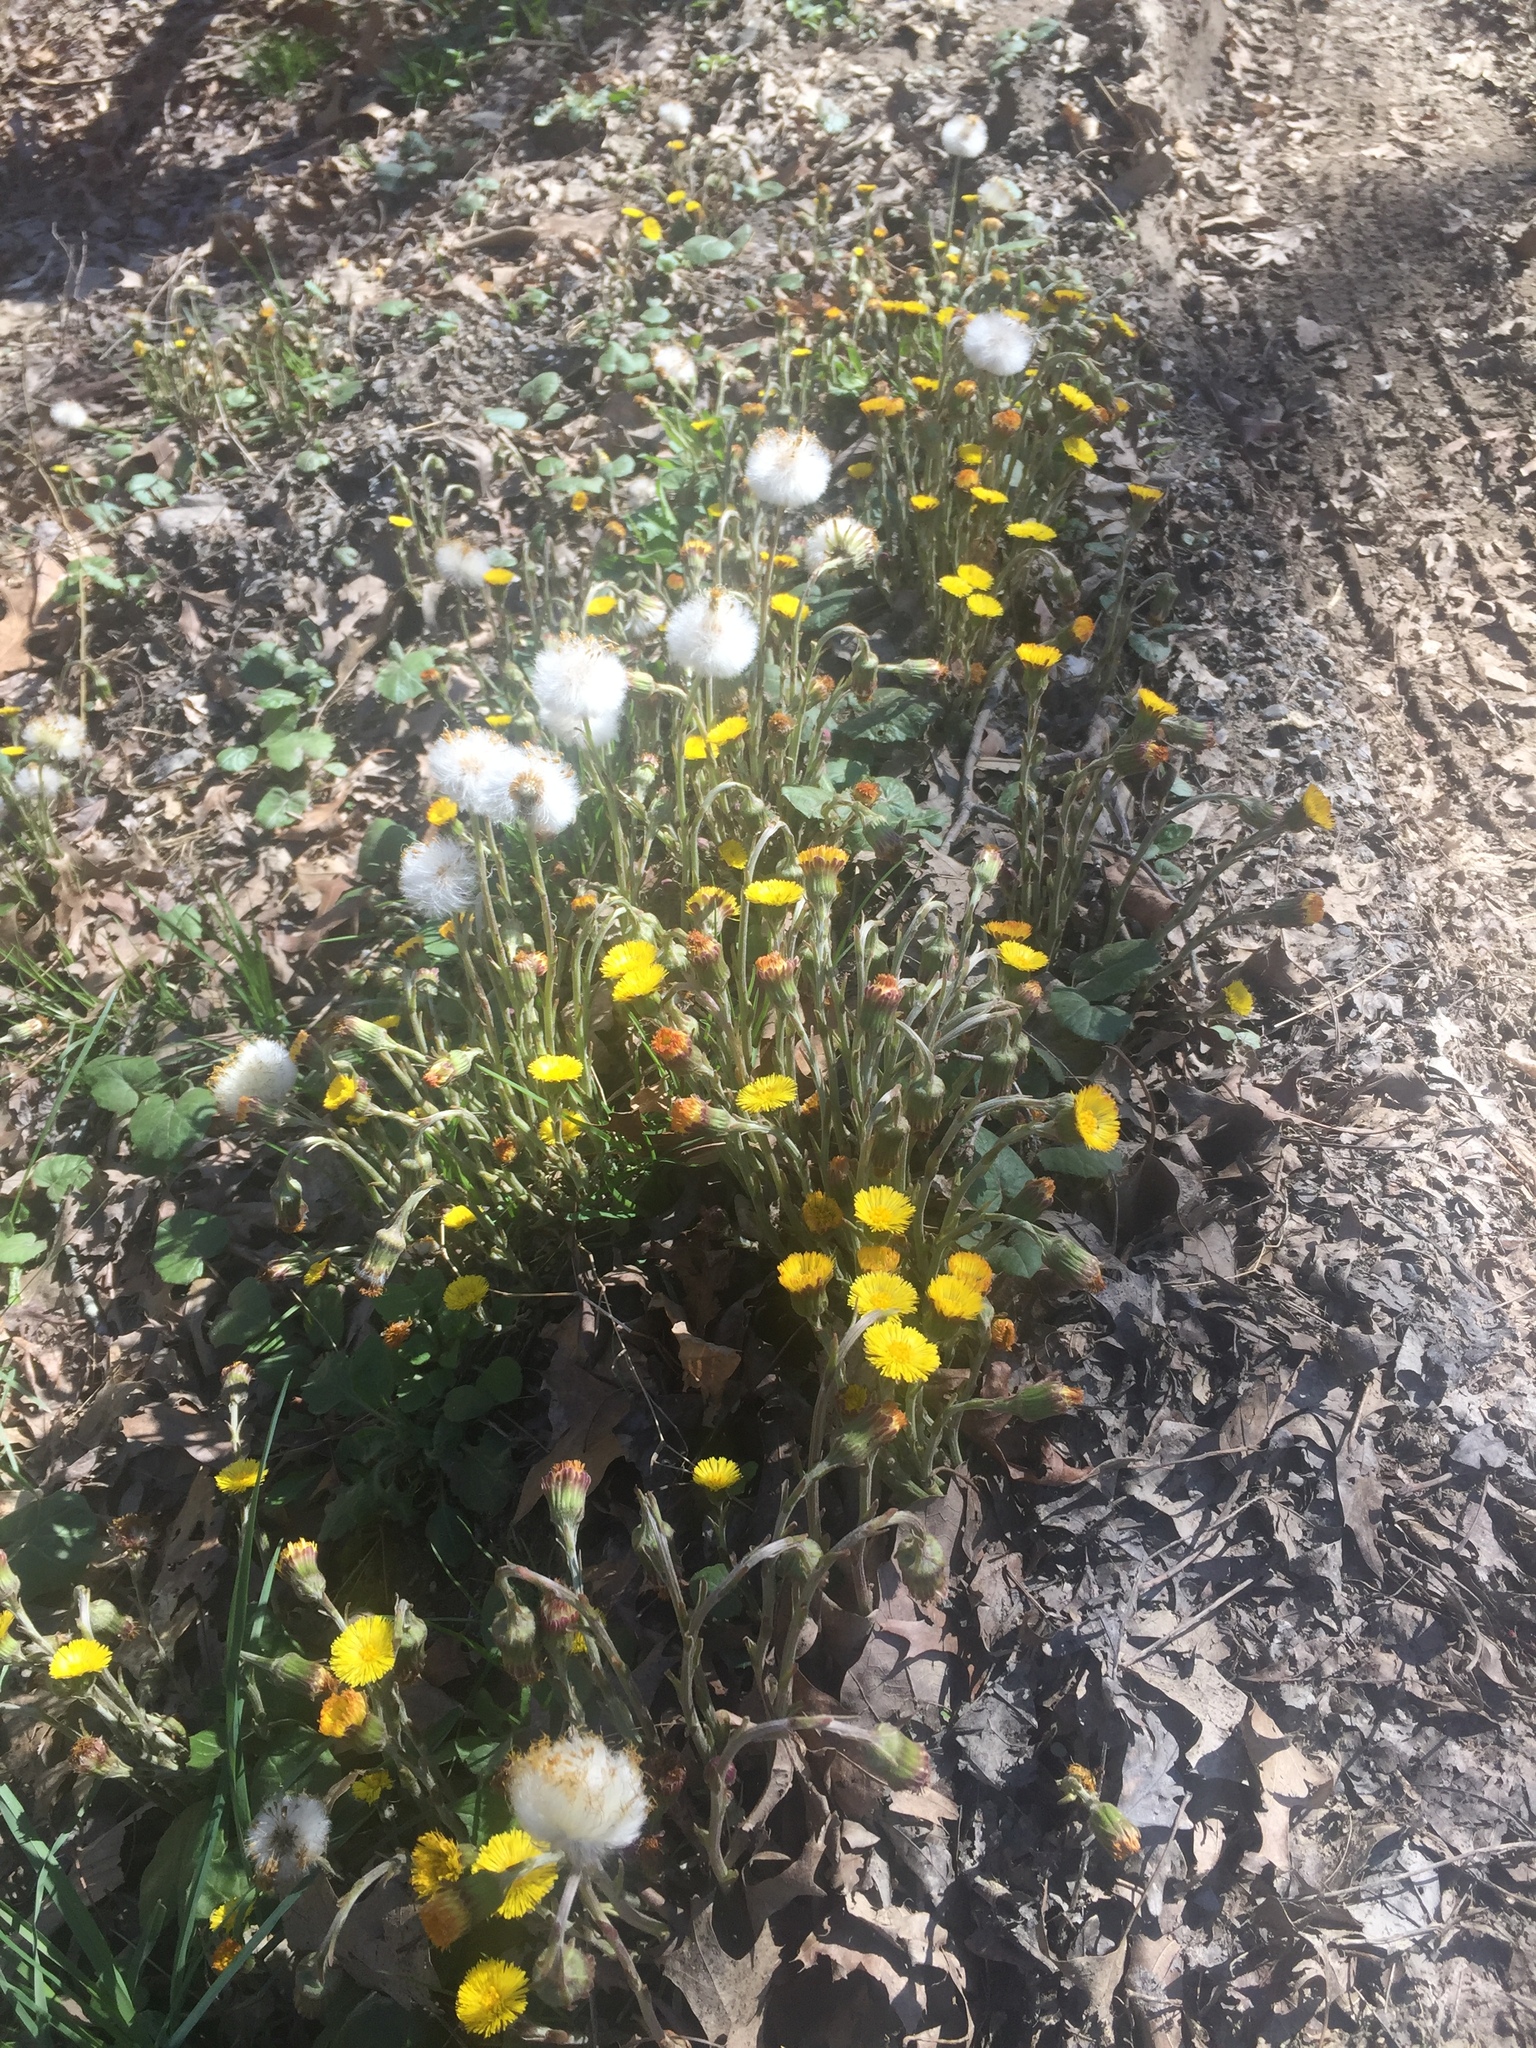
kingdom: Plantae
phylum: Tracheophyta
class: Magnoliopsida
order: Asterales
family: Asteraceae
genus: Tussilago
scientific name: Tussilago farfara
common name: Coltsfoot
